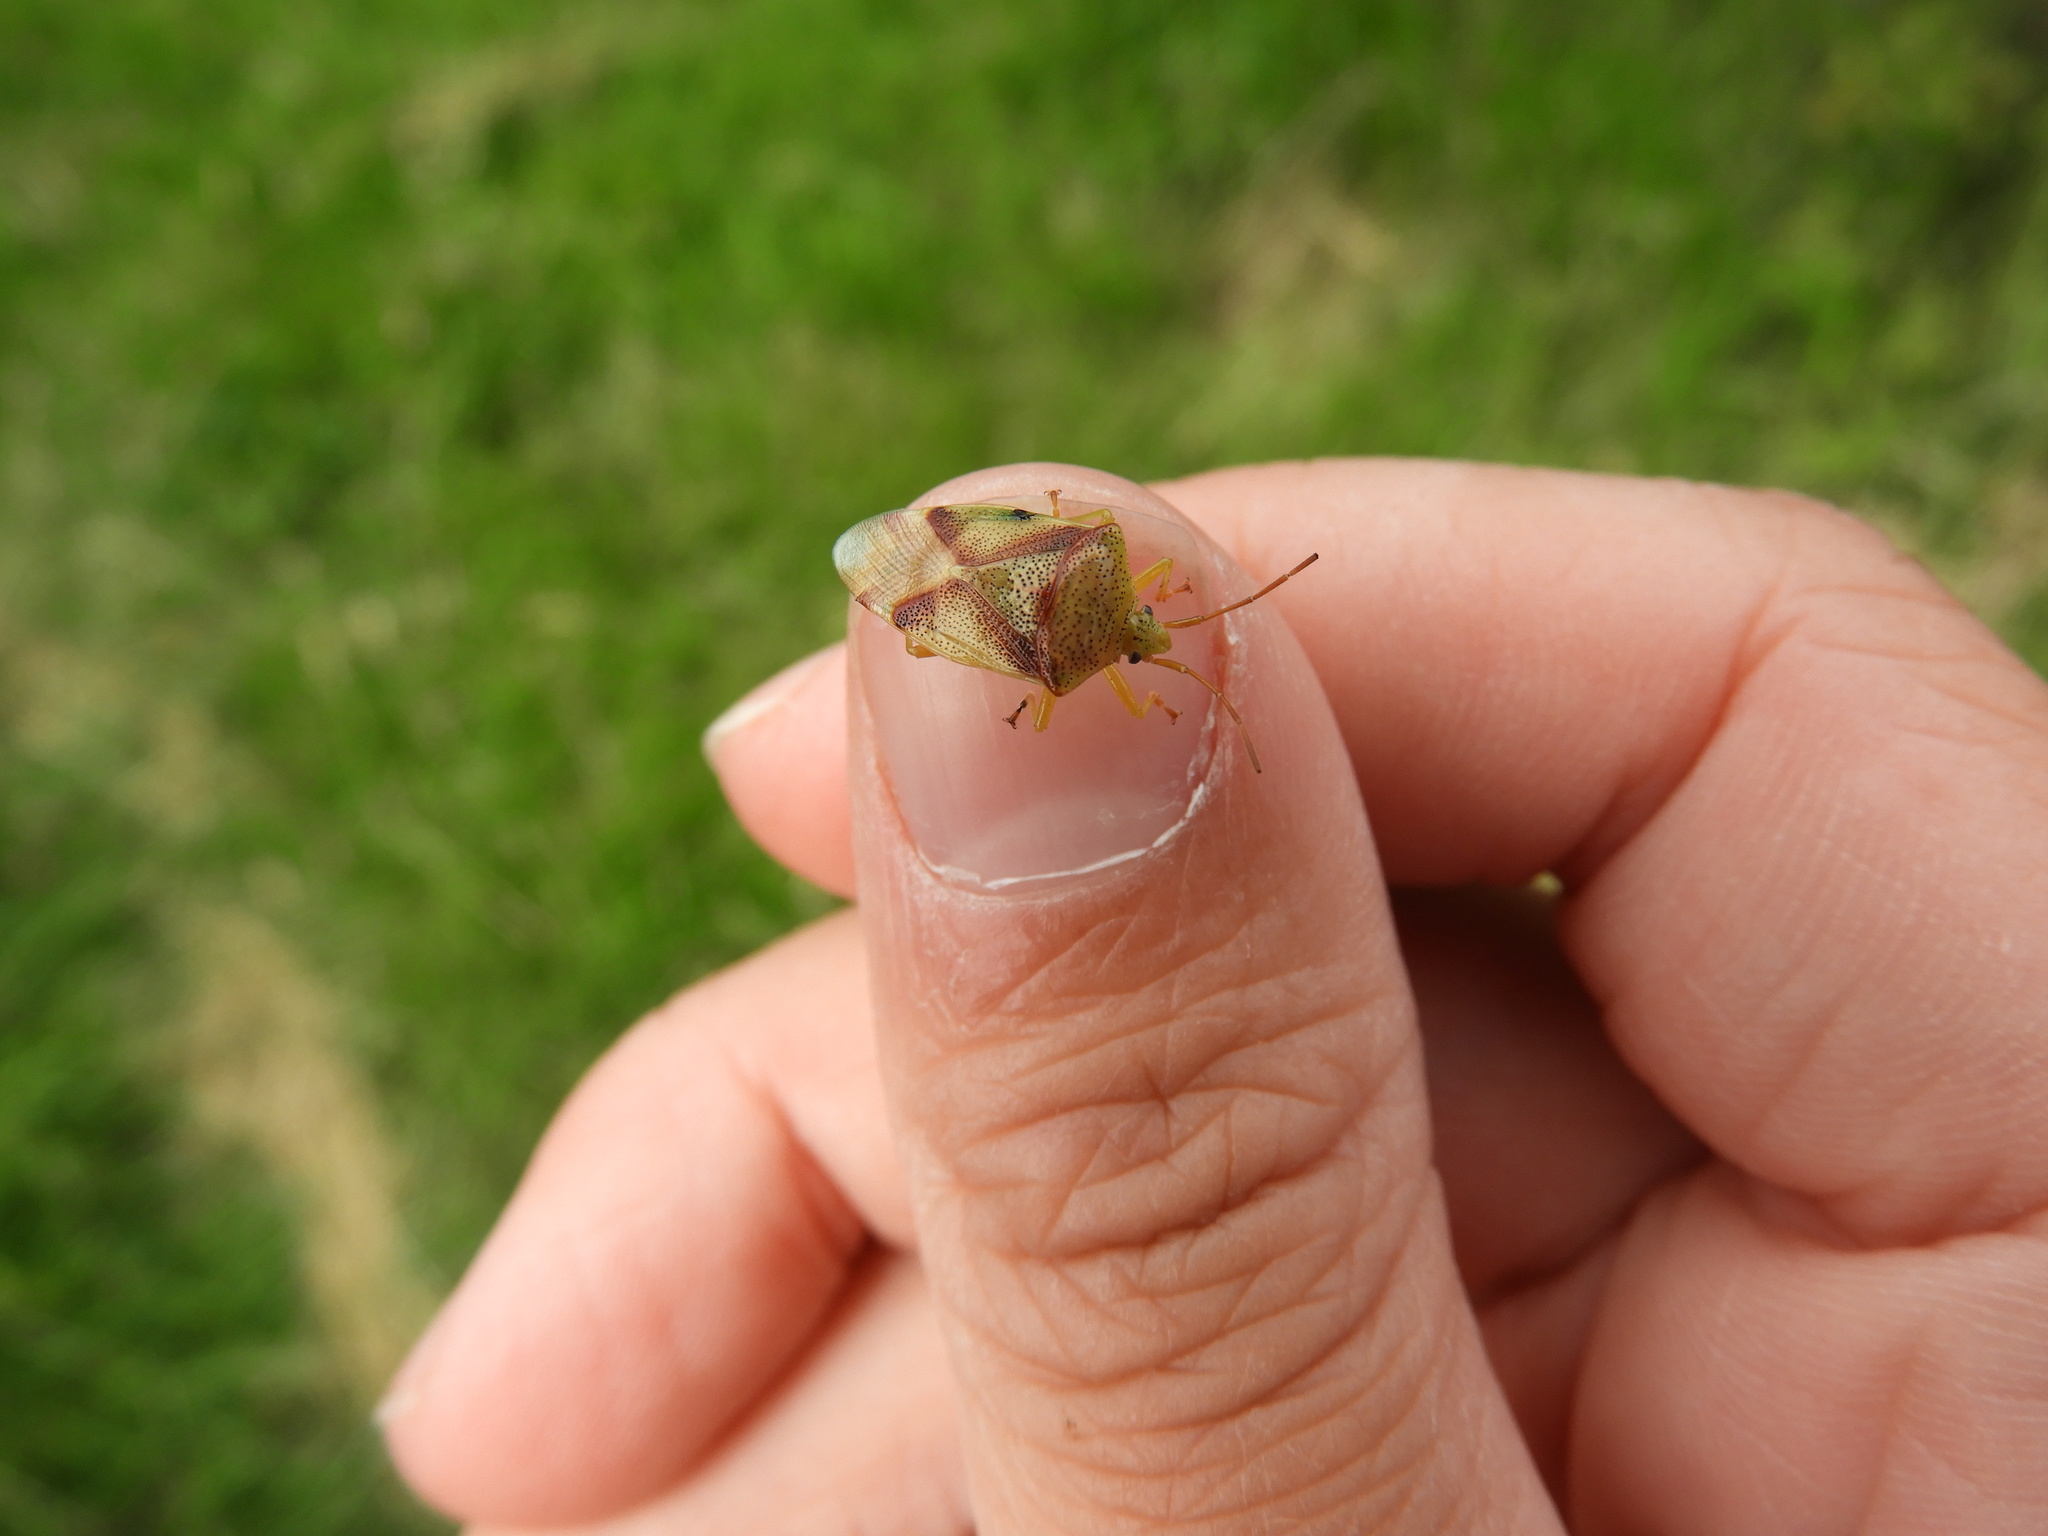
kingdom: Animalia
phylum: Arthropoda
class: Insecta
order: Hemiptera
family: Acanthosomatidae
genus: Elasmostethus
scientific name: Elasmostethus cruciatus
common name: Red-cross shield bug
